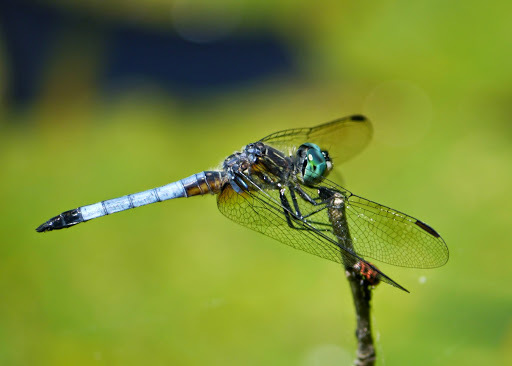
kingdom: Animalia
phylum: Arthropoda
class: Insecta
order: Odonata
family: Libellulidae
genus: Pachydiplax
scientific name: Pachydiplax longipennis
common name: Blue dasher
